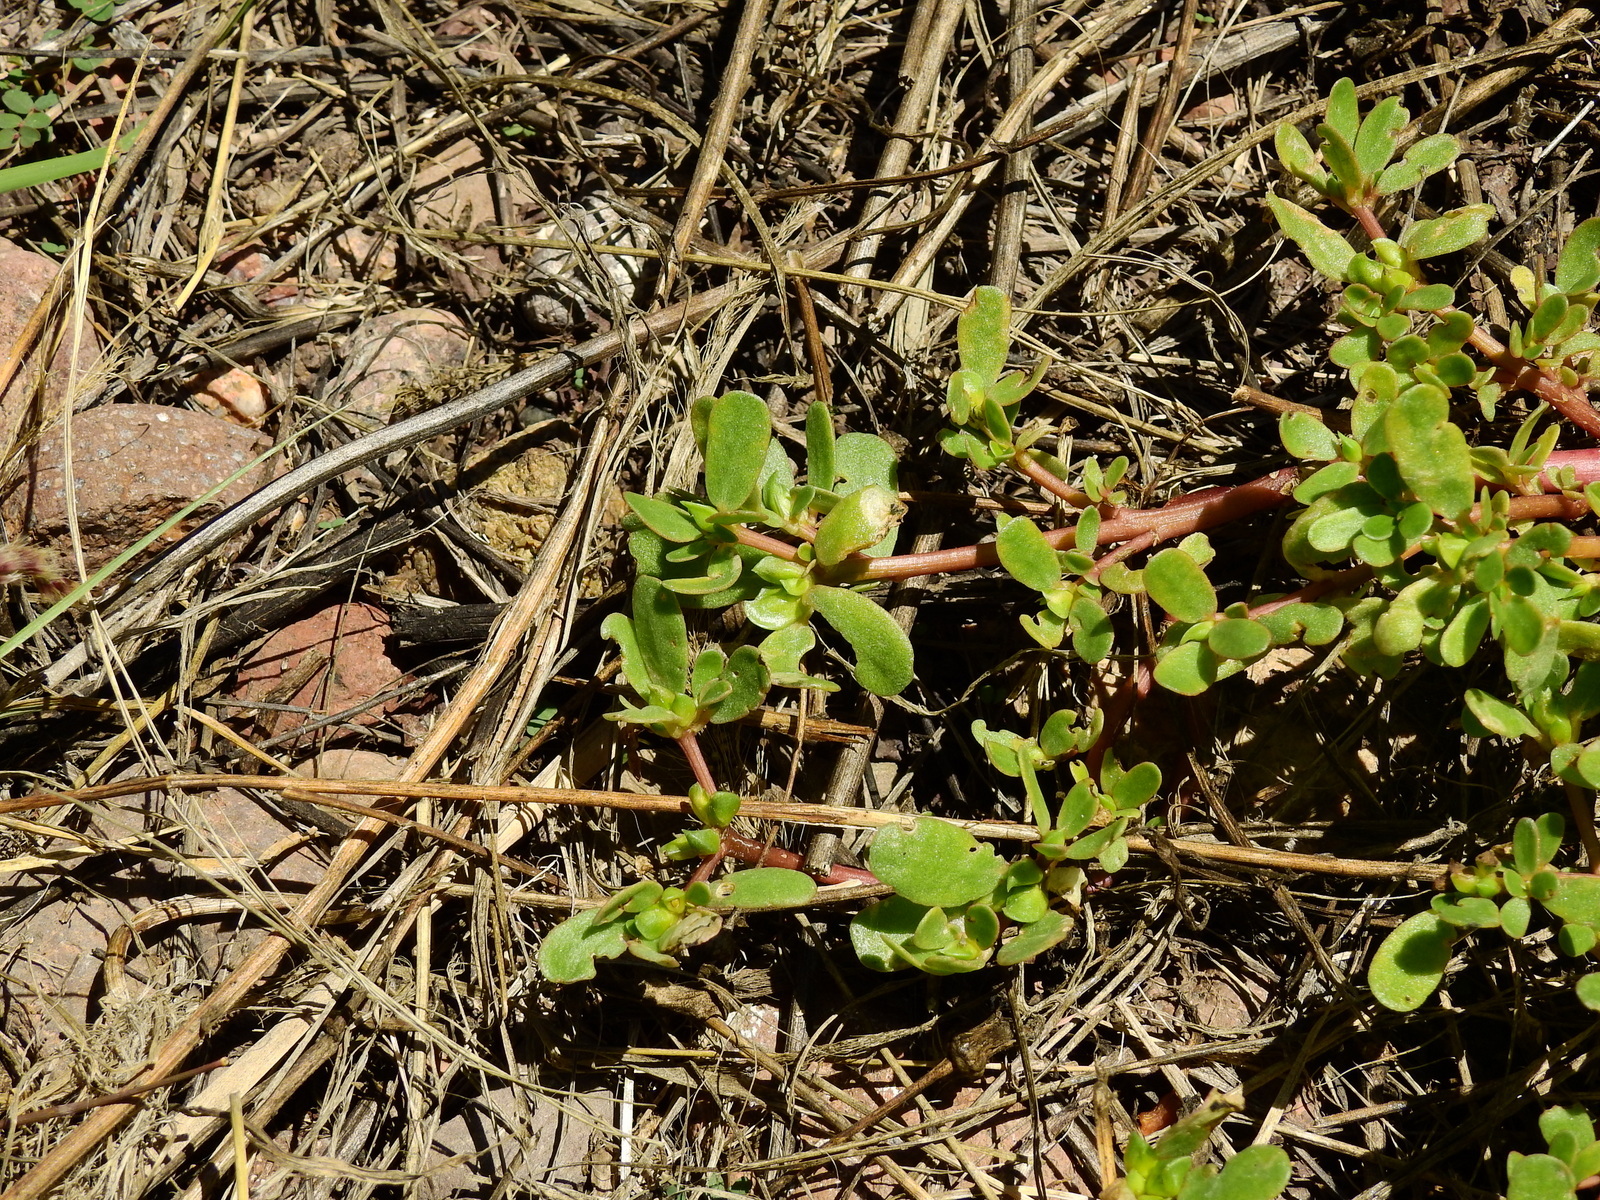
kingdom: Plantae
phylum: Tracheophyta
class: Magnoliopsida
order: Caryophyllales
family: Portulacaceae
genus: Portulaca
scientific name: Portulaca oleracea
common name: Common purslane
